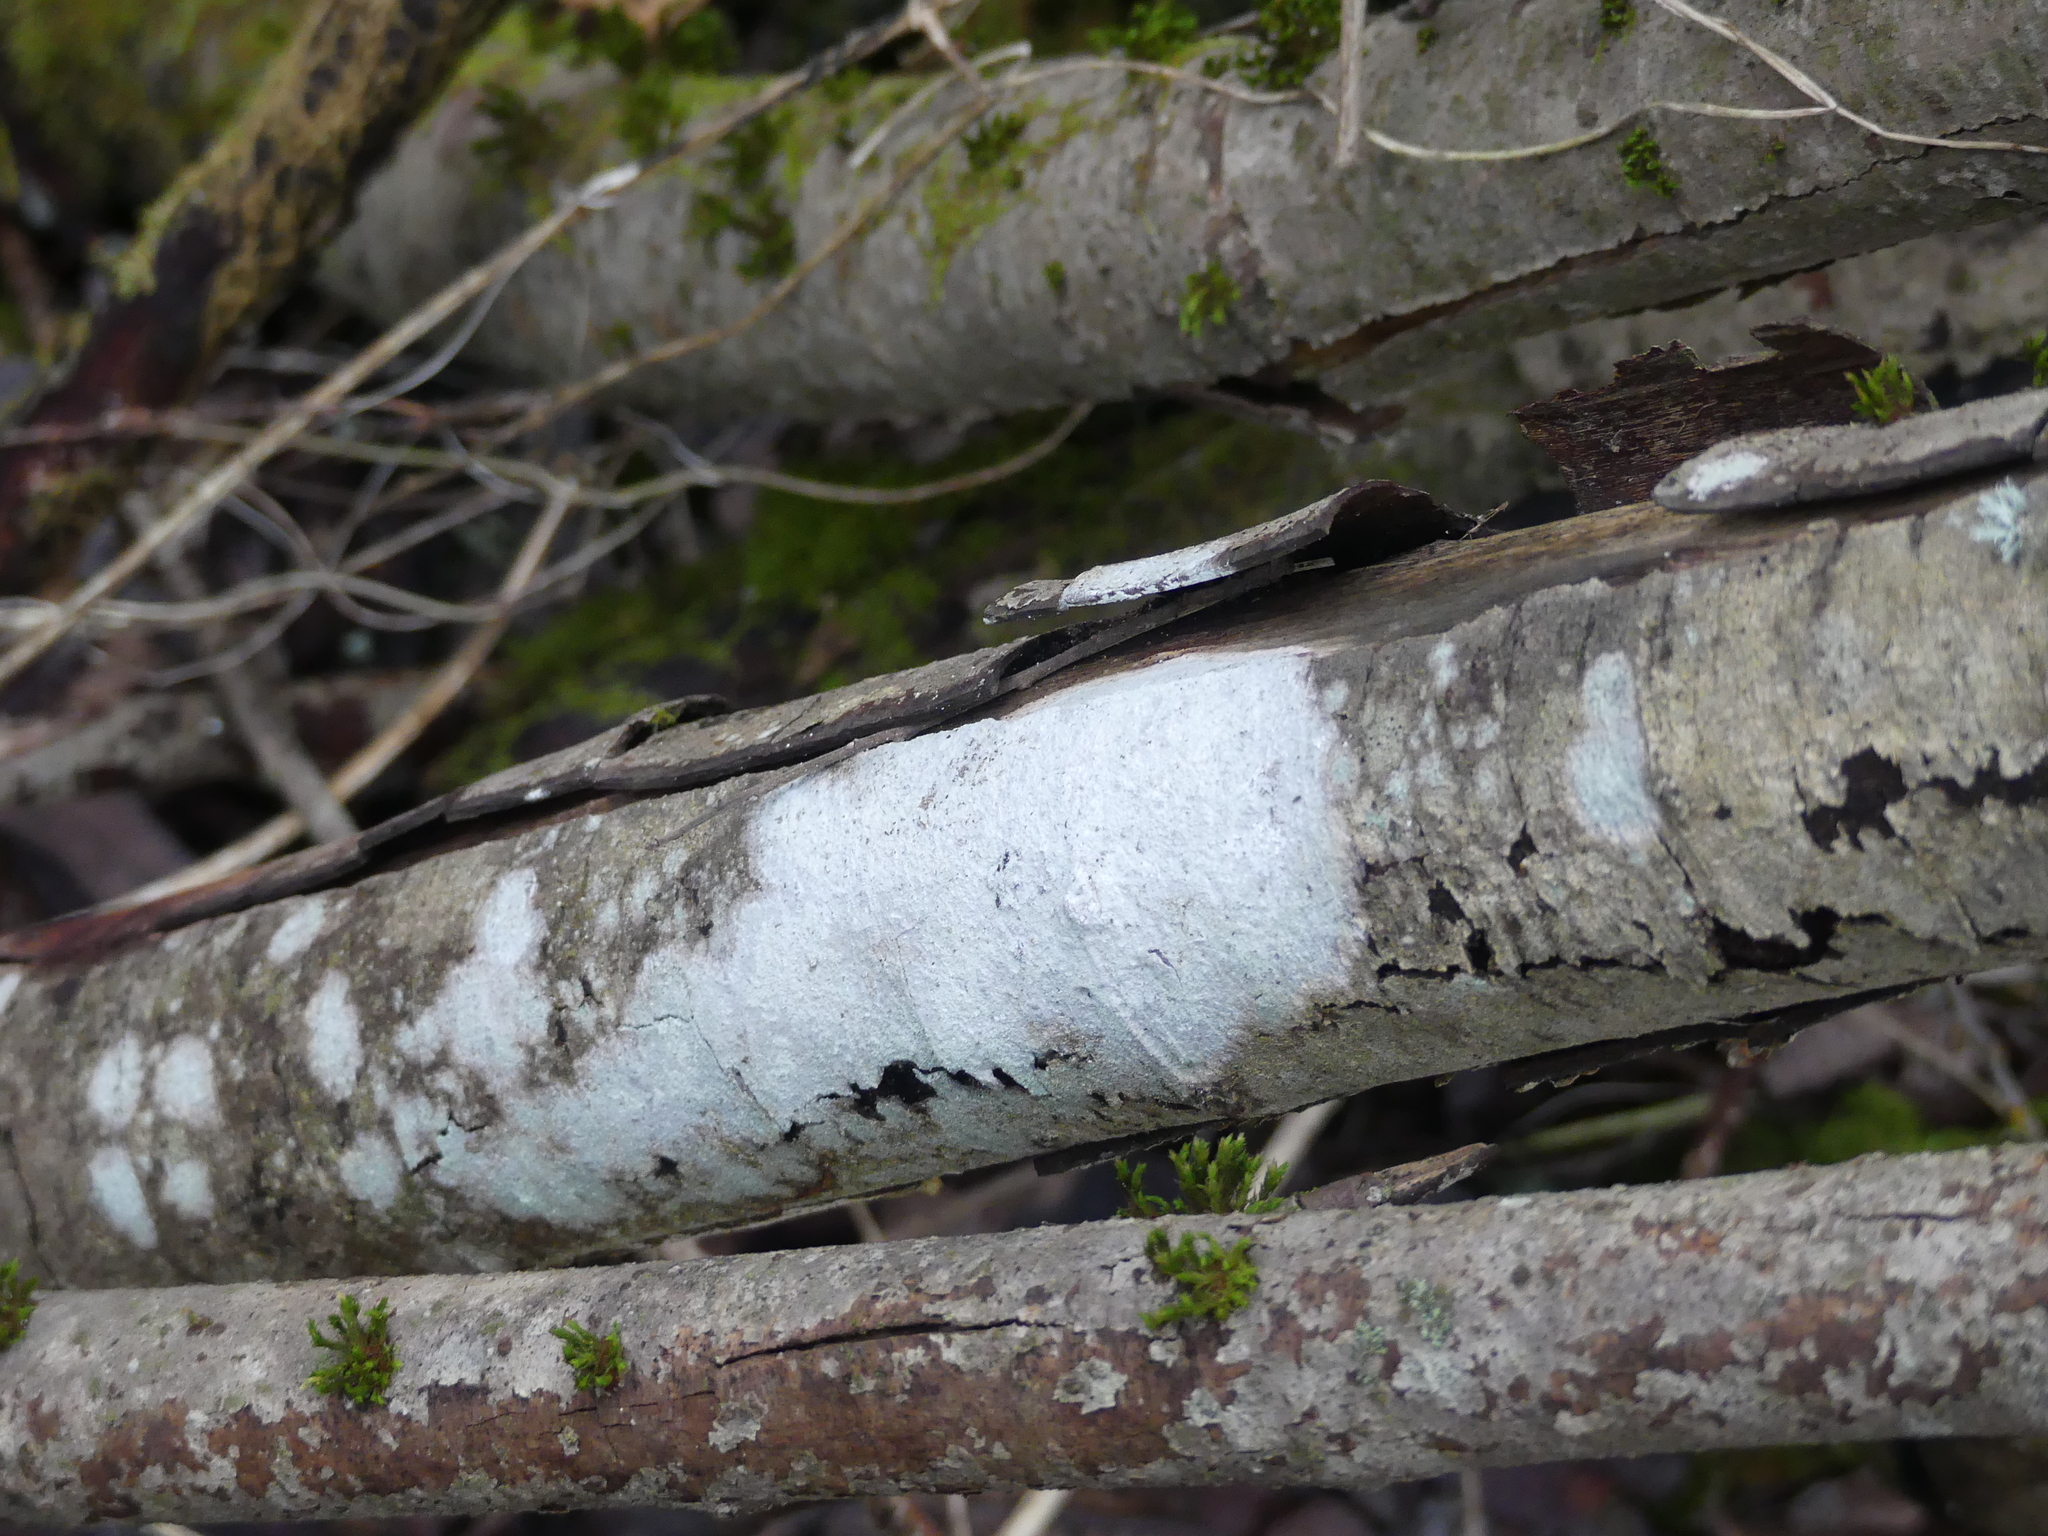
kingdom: Fungi
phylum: Ascomycota
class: Lecanoromycetes
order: Ostropales
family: Phlyctidaceae
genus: Phlyctis
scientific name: Phlyctis argena
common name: Whitewash lichen
